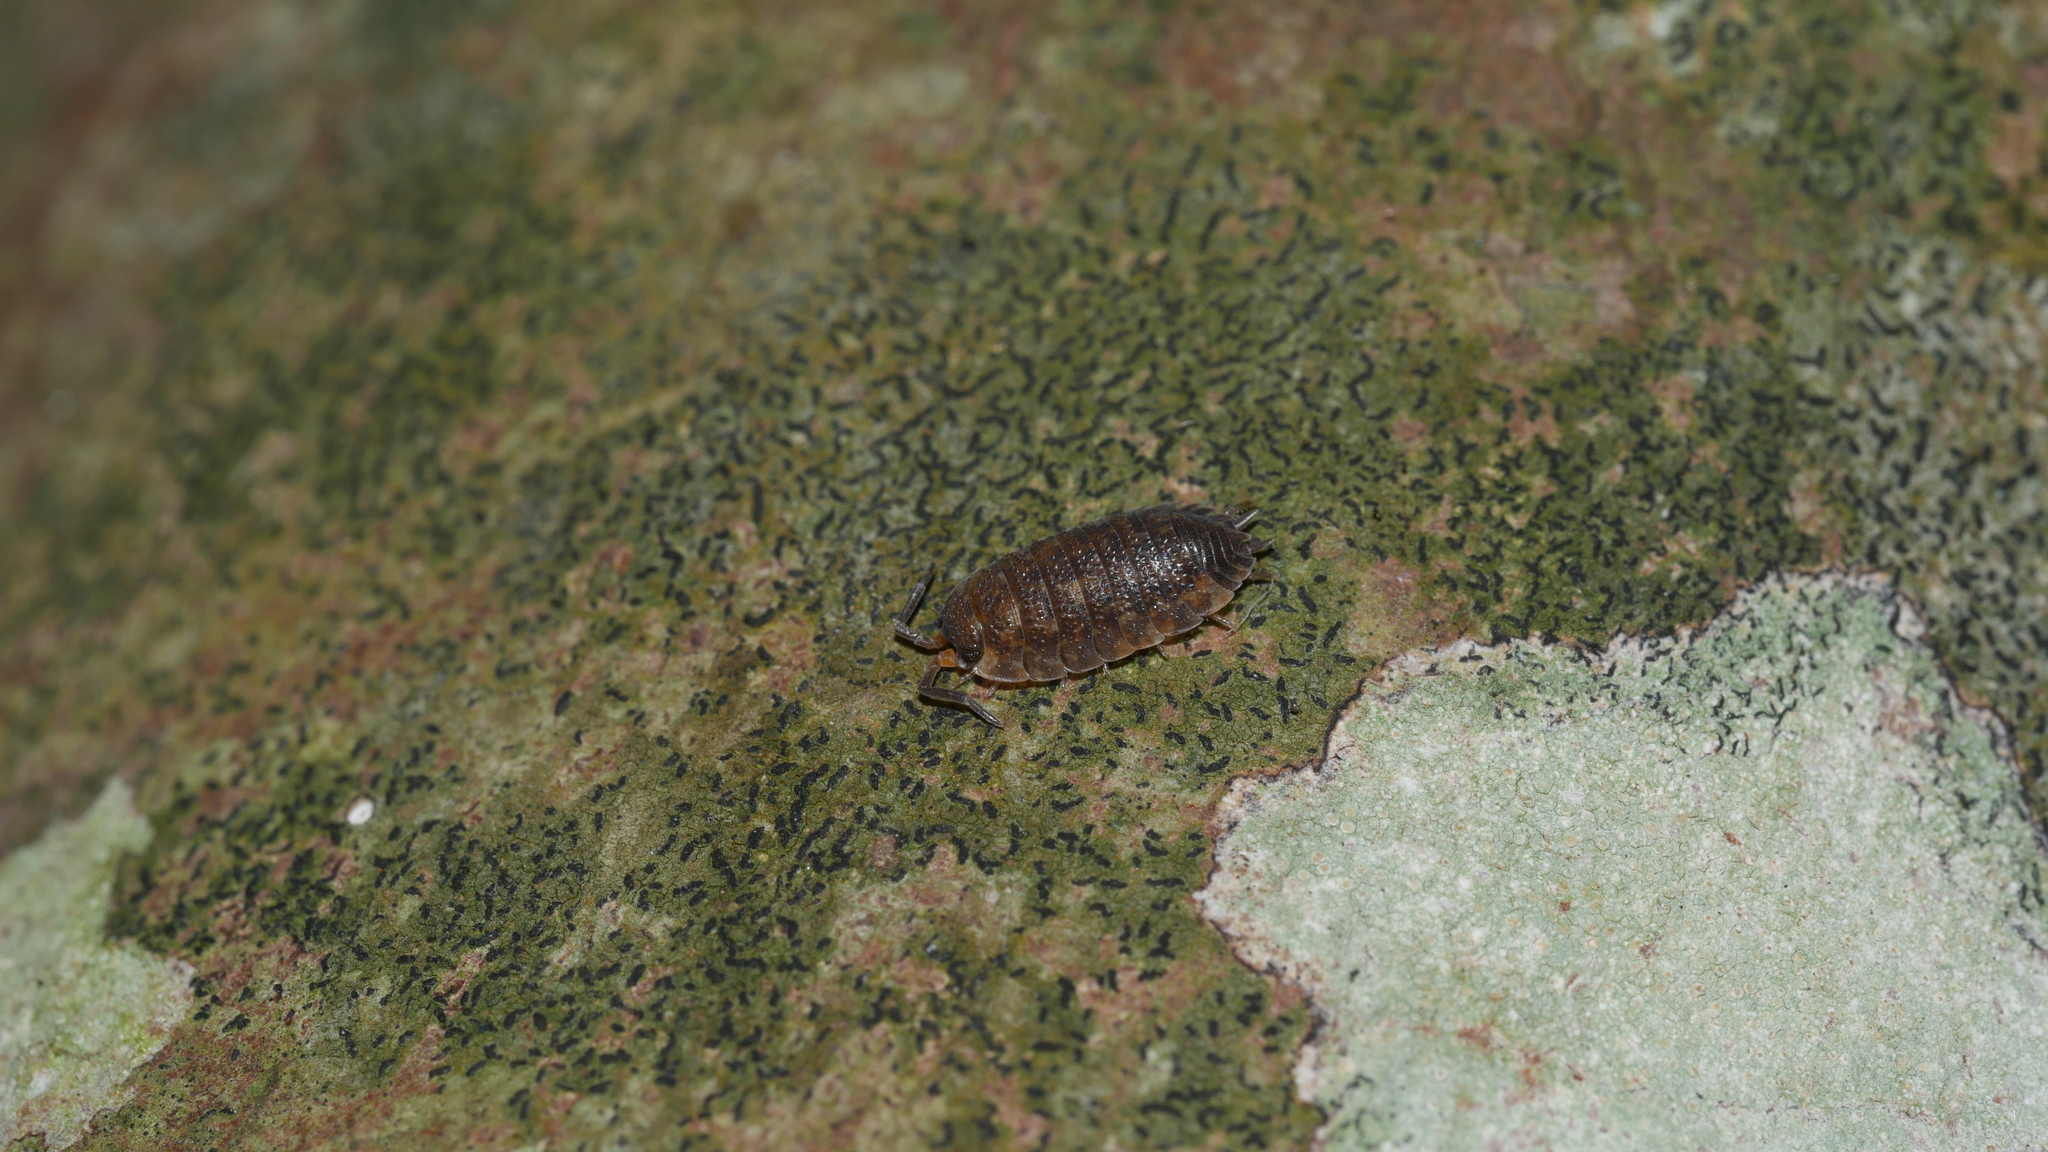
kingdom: Animalia
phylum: Arthropoda
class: Malacostraca
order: Isopoda
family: Porcellionidae
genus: Porcellio
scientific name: Porcellio scaber
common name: Common rough woodlouse
